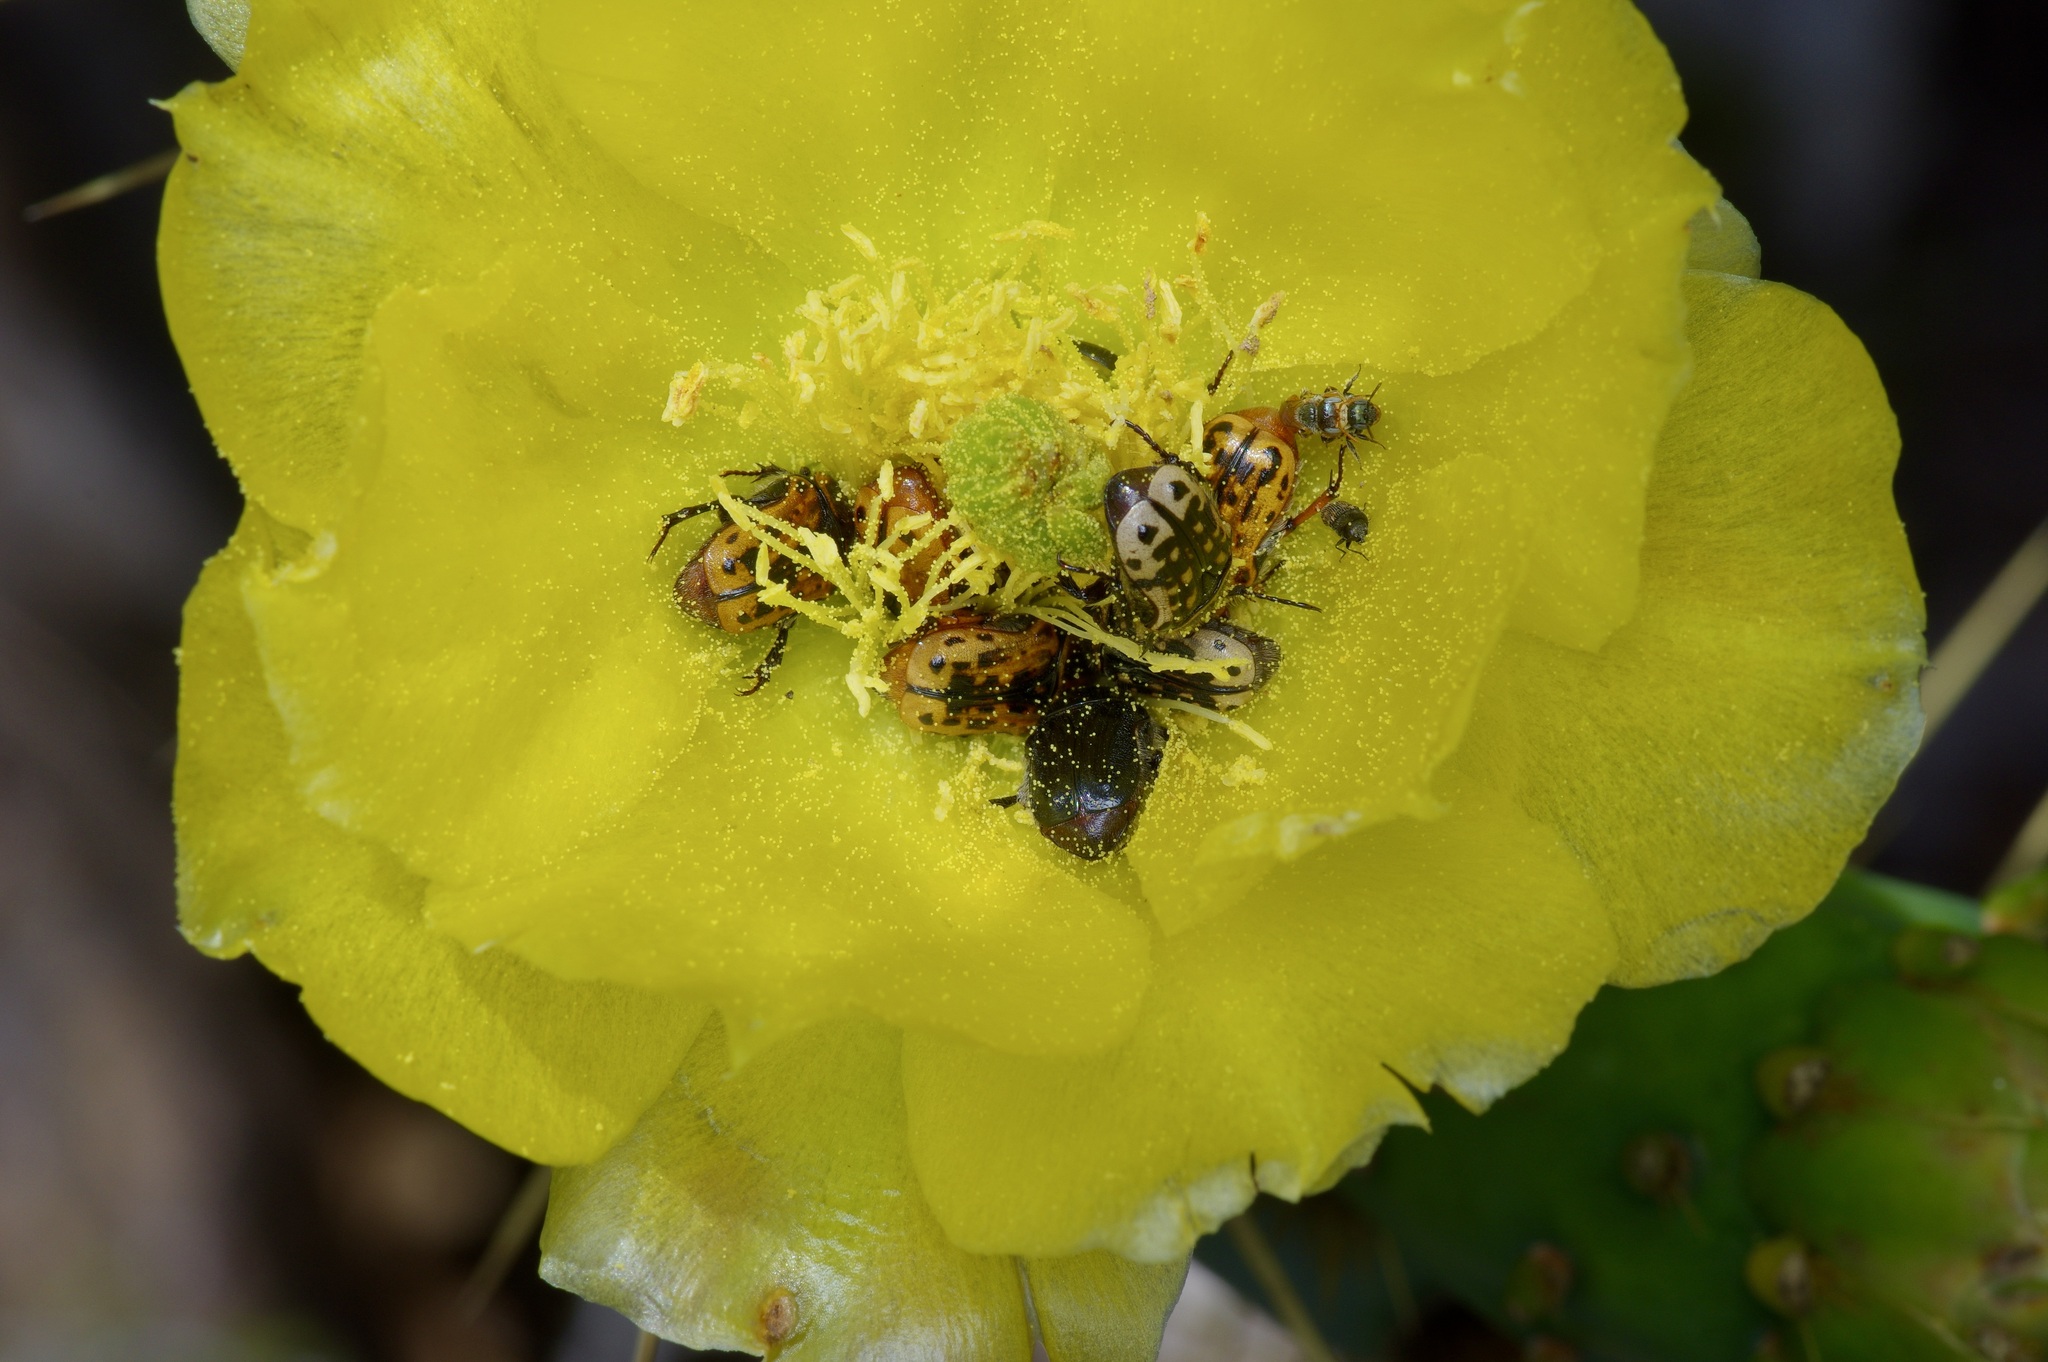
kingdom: Animalia
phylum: Arthropoda
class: Insecta
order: Coleoptera
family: Scarabaeidae
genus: Euphoria
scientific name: Euphoria kernii
